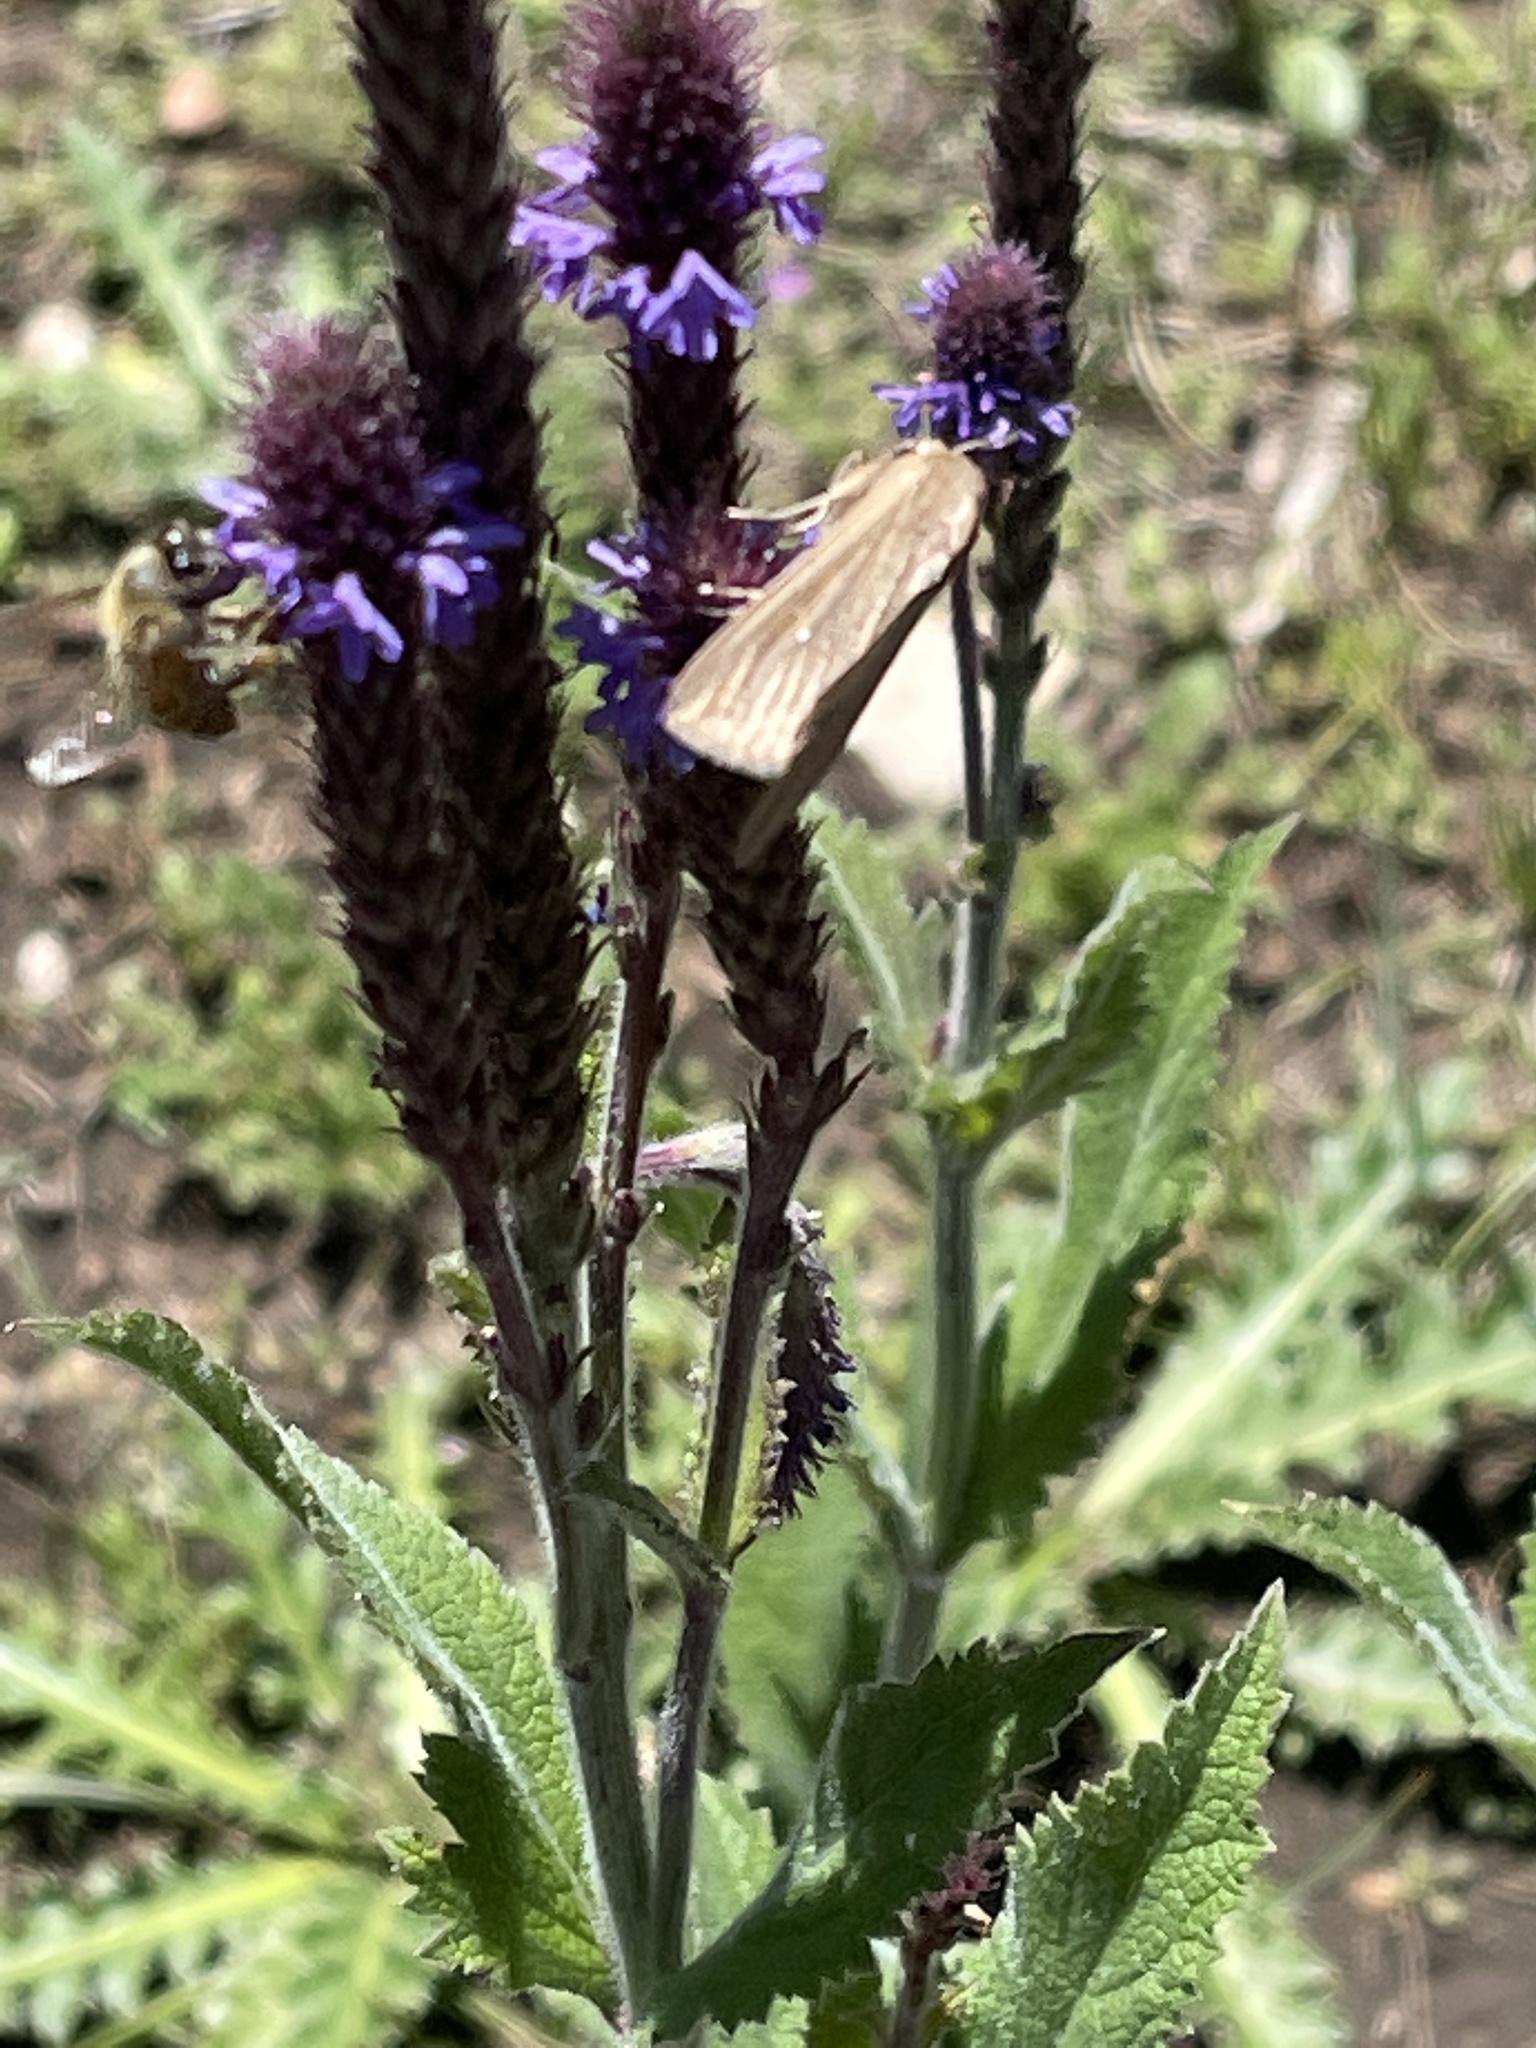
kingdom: Animalia
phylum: Arthropoda
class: Insecta
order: Hymenoptera
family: Apidae
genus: Apis
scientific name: Apis mellifera
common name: Honey bee
